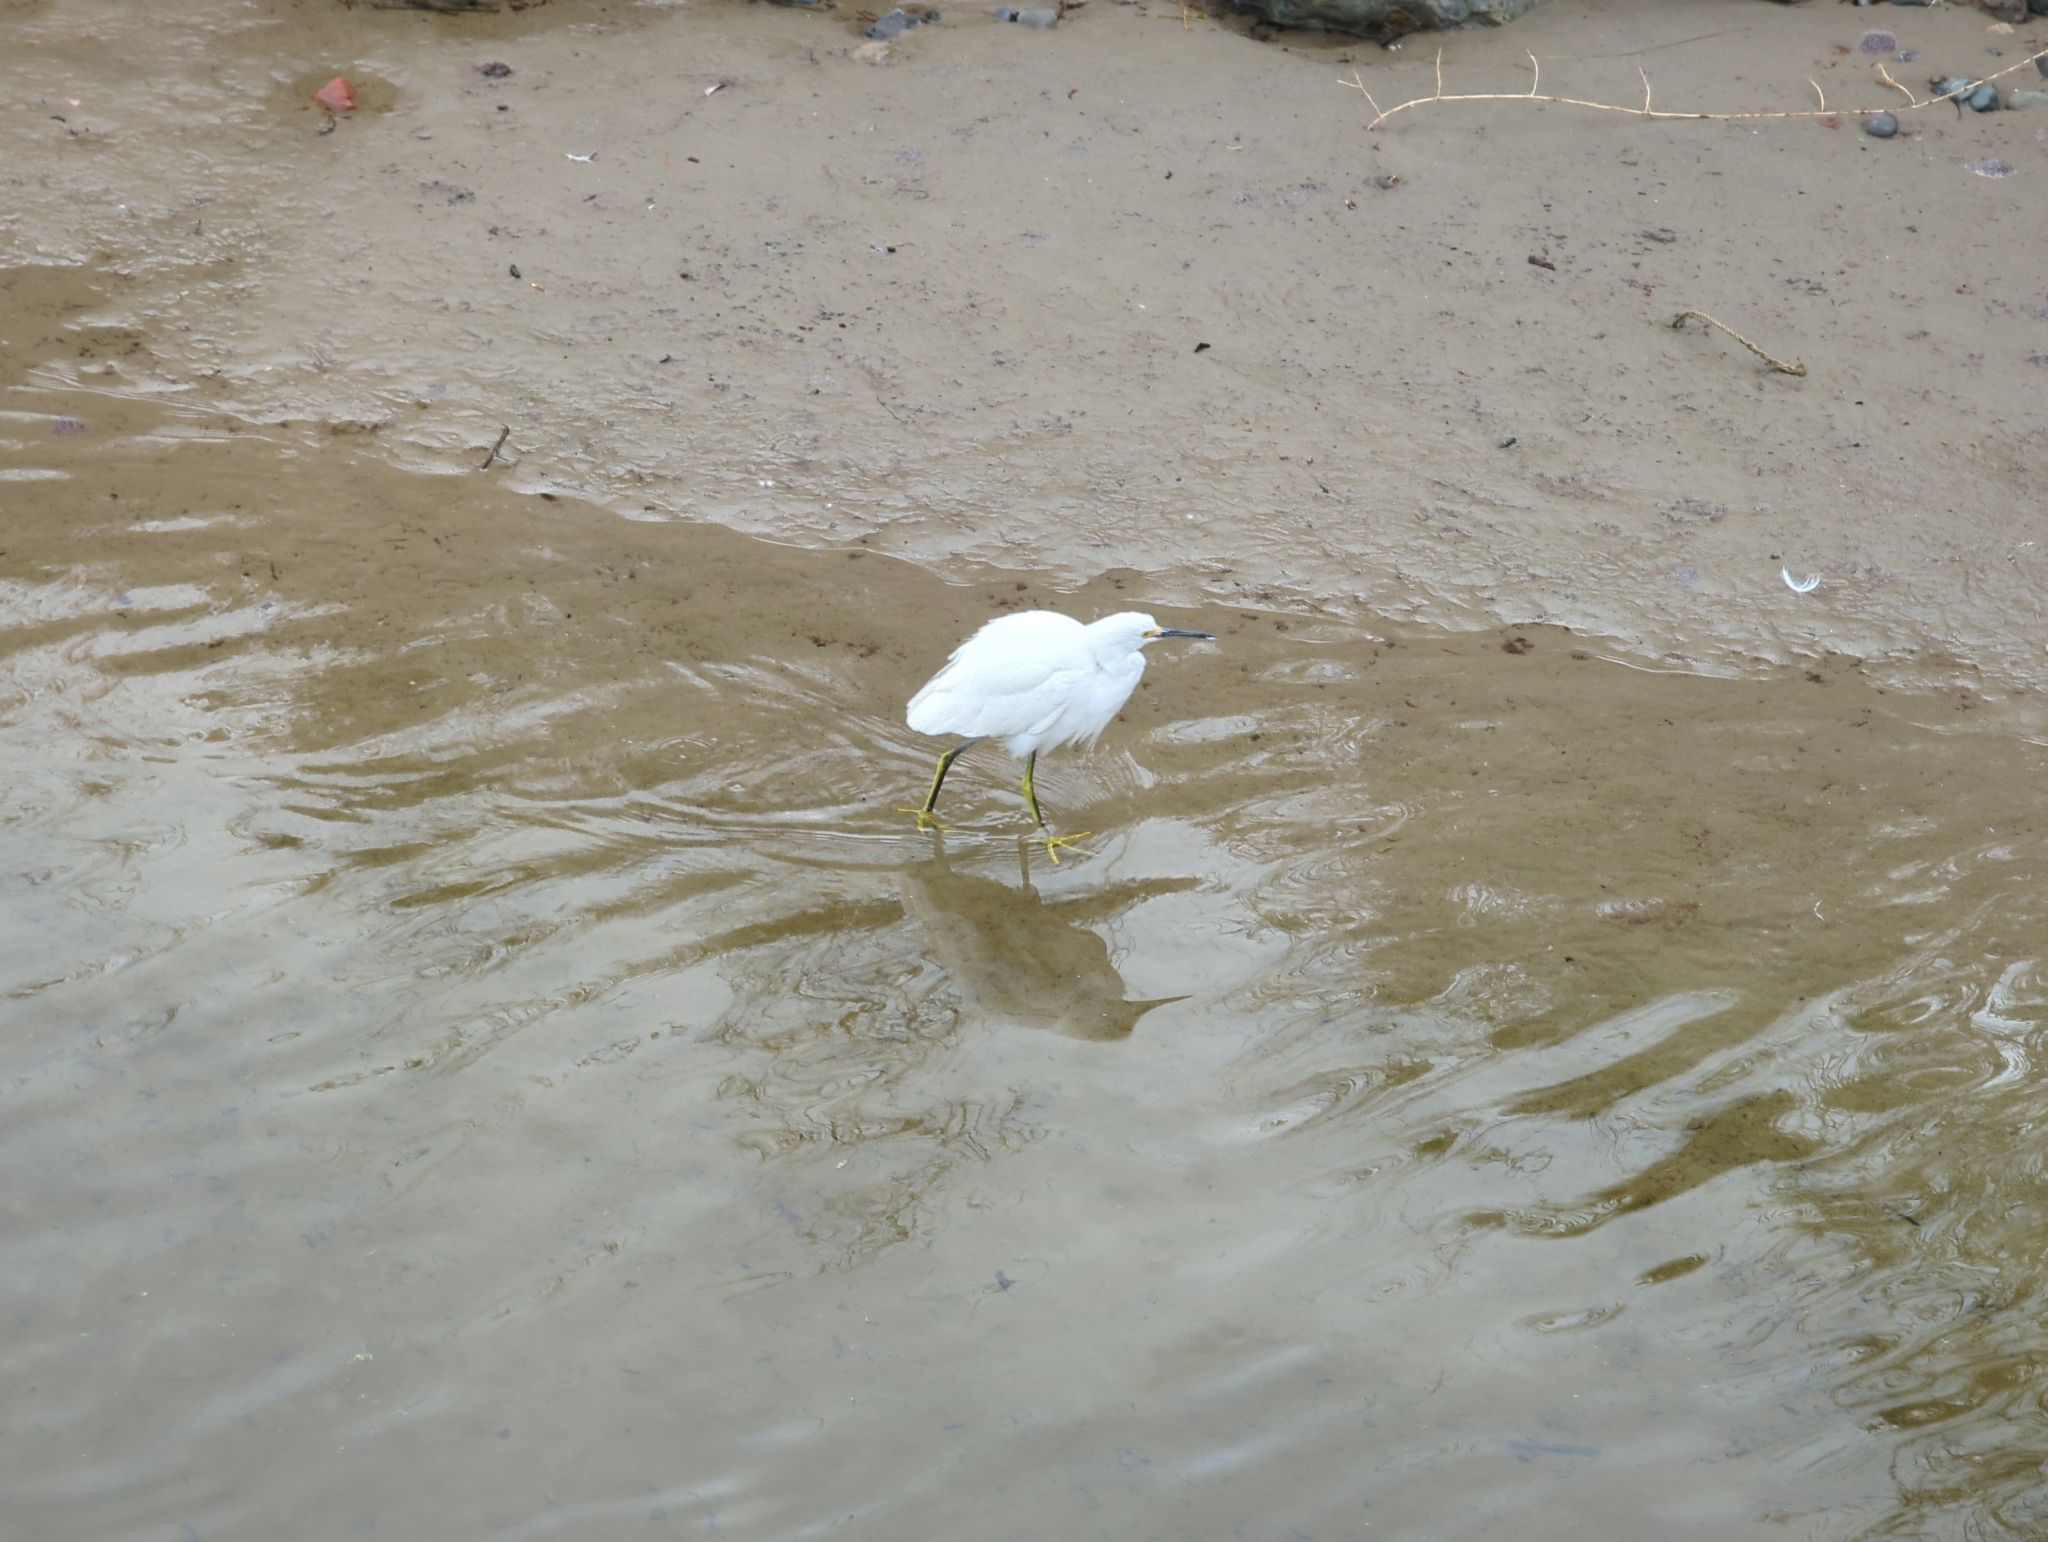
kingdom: Animalia
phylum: Chordata
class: Aves
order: Pelecaniformes
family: Ardeidae
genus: Egretta
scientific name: Egretta thula
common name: Snowy egret
